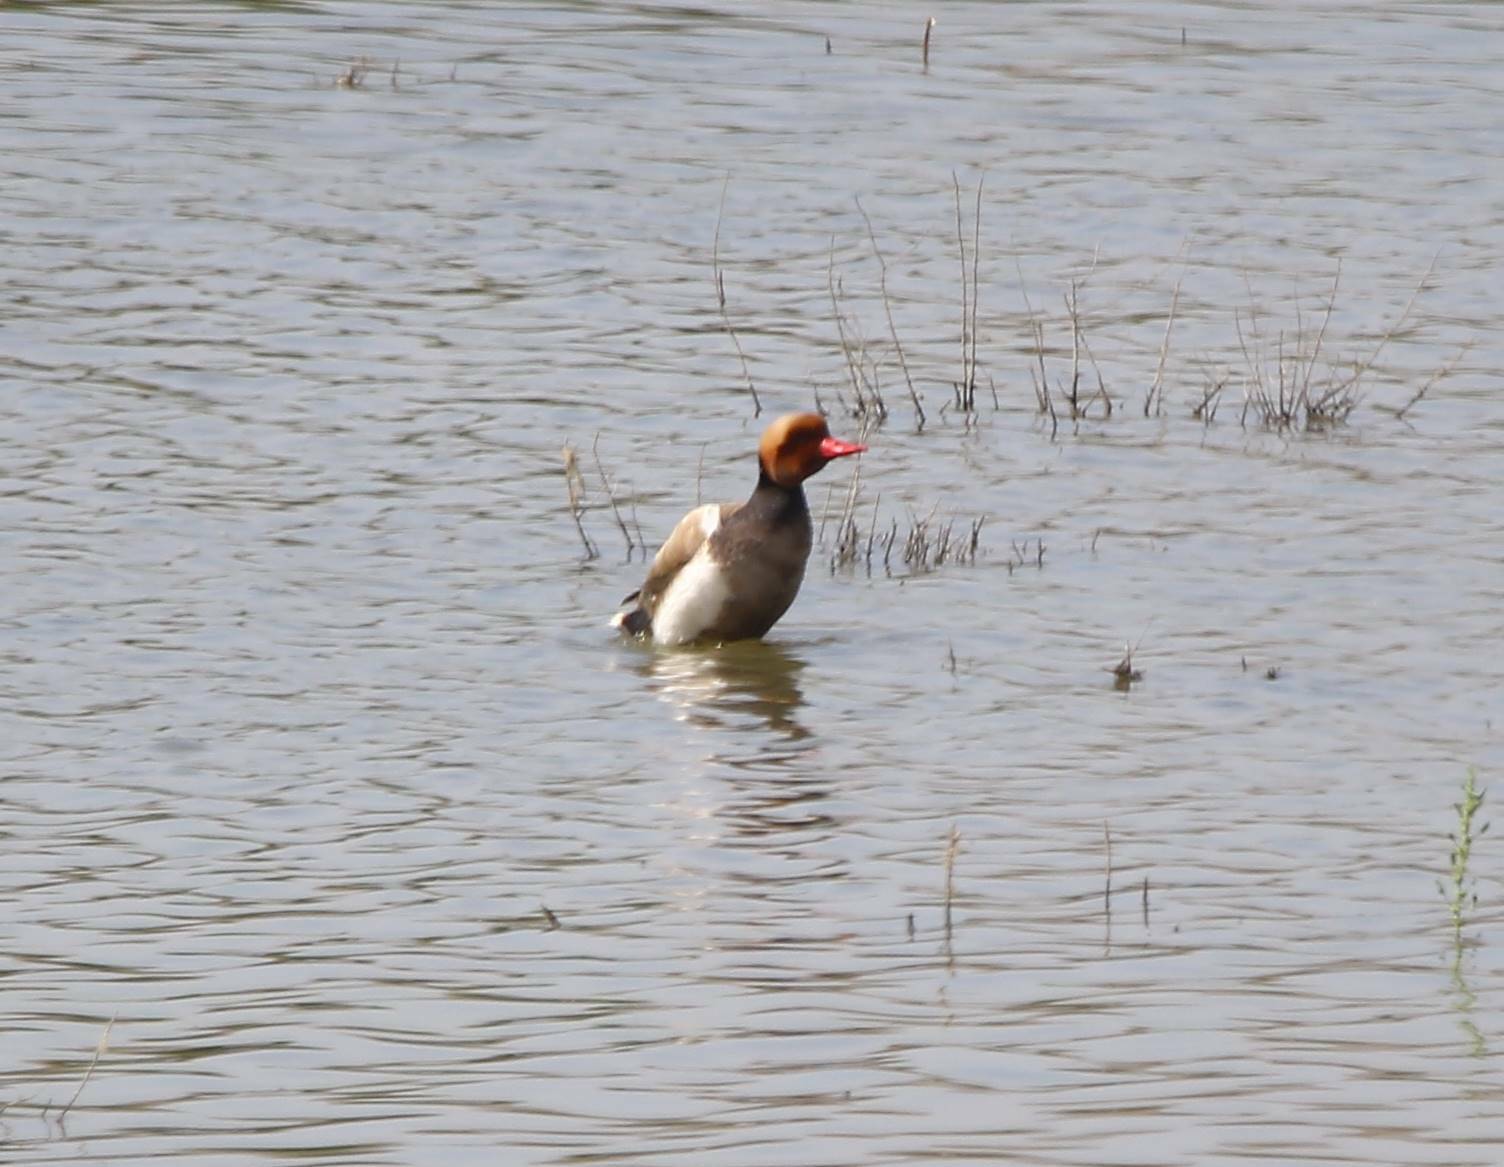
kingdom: Animalia
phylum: Chordata
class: Aves
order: Anseriformes
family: Anatidae
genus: Netta
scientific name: Netta rufina
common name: Red-crested pochard
